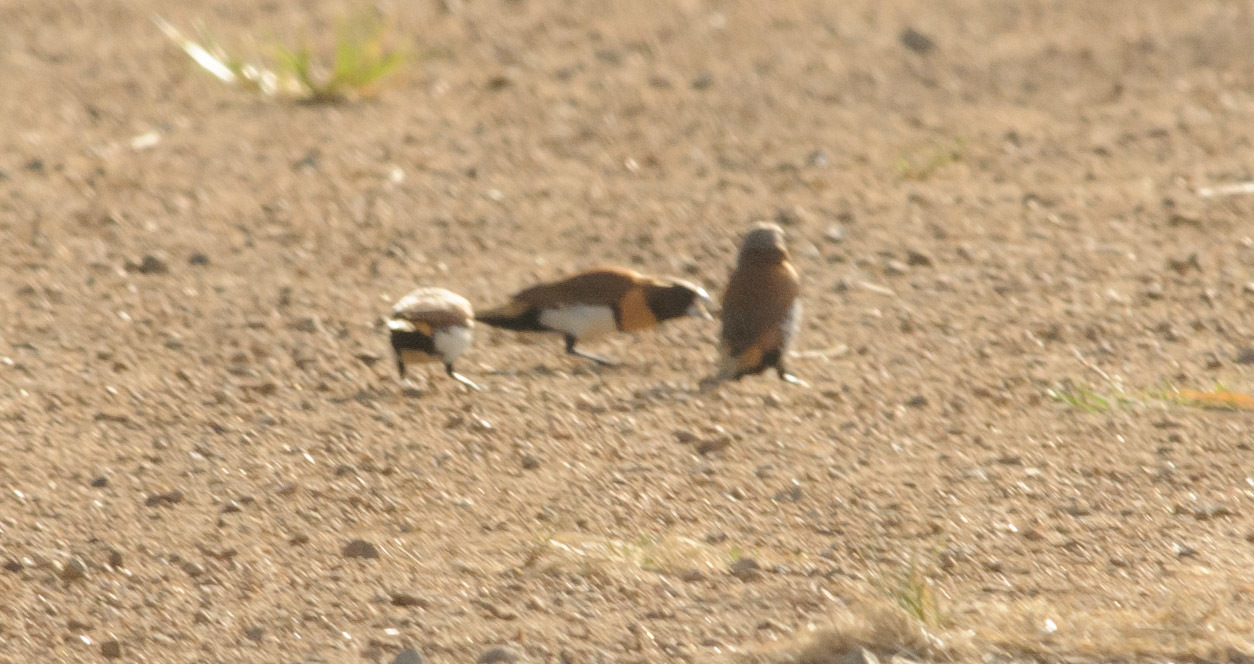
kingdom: Animalia
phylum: Chordata
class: Aves
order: Passeriformes
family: Estrildidae
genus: Lonchura
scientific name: Lonchura castaneothorax
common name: Chestnut-breasted mannikin
